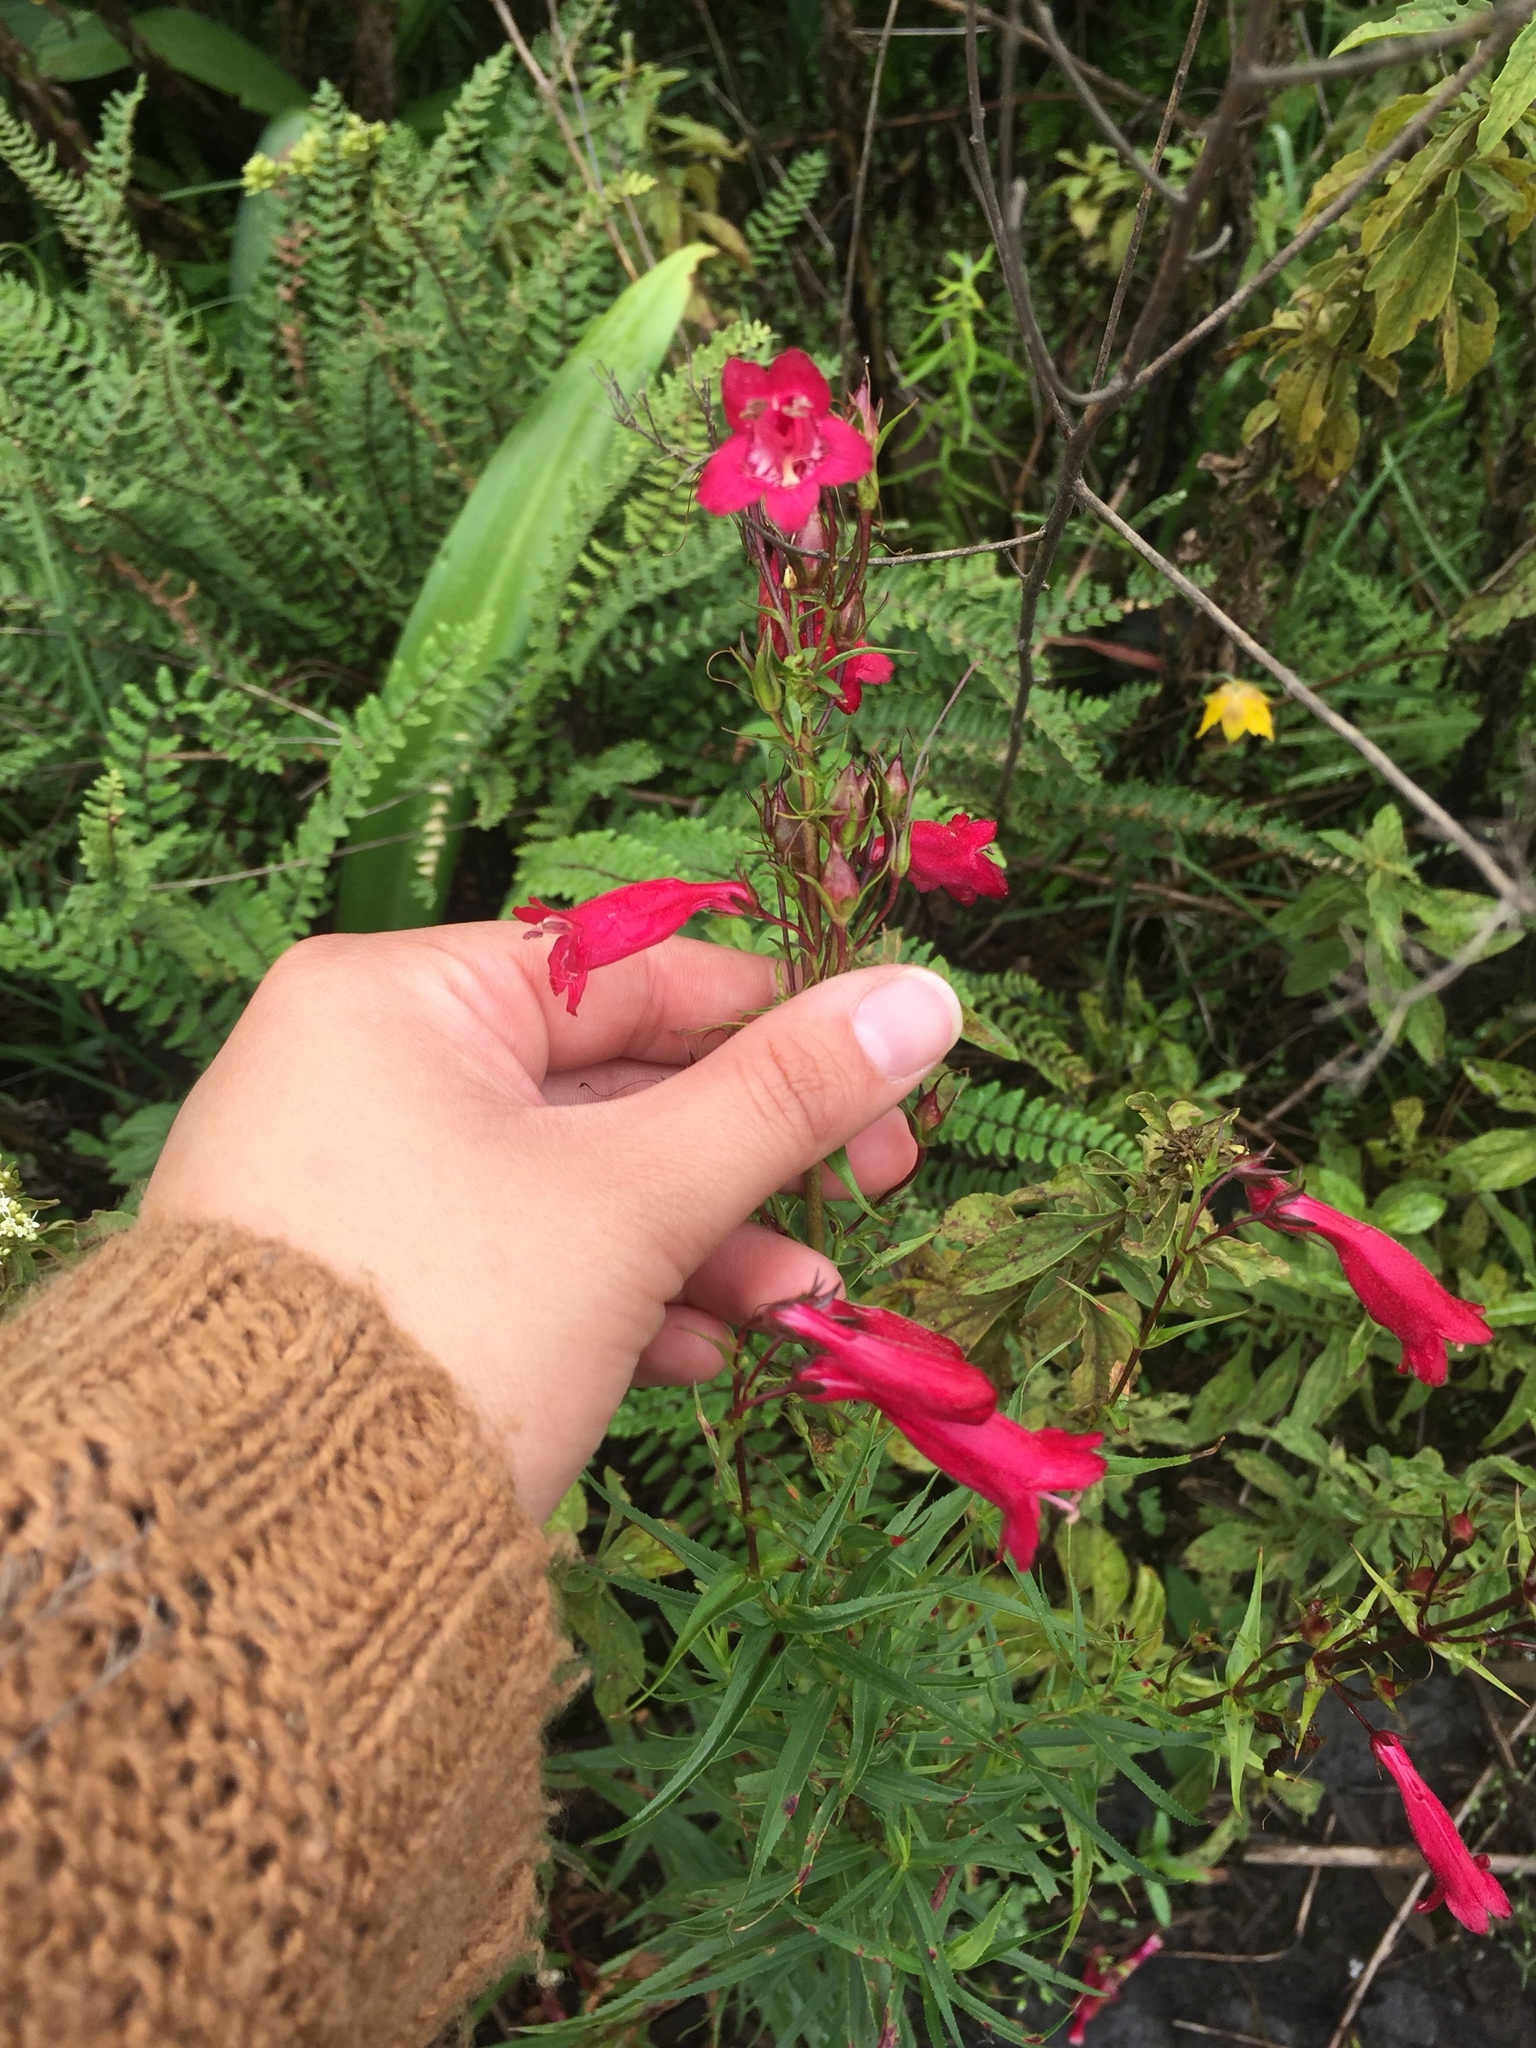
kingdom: Plantae
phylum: Tracheophyta
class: Magnoliopsida
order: Lamiales
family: Plantaginaceae
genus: Penstemon
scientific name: Penstemon roseus
